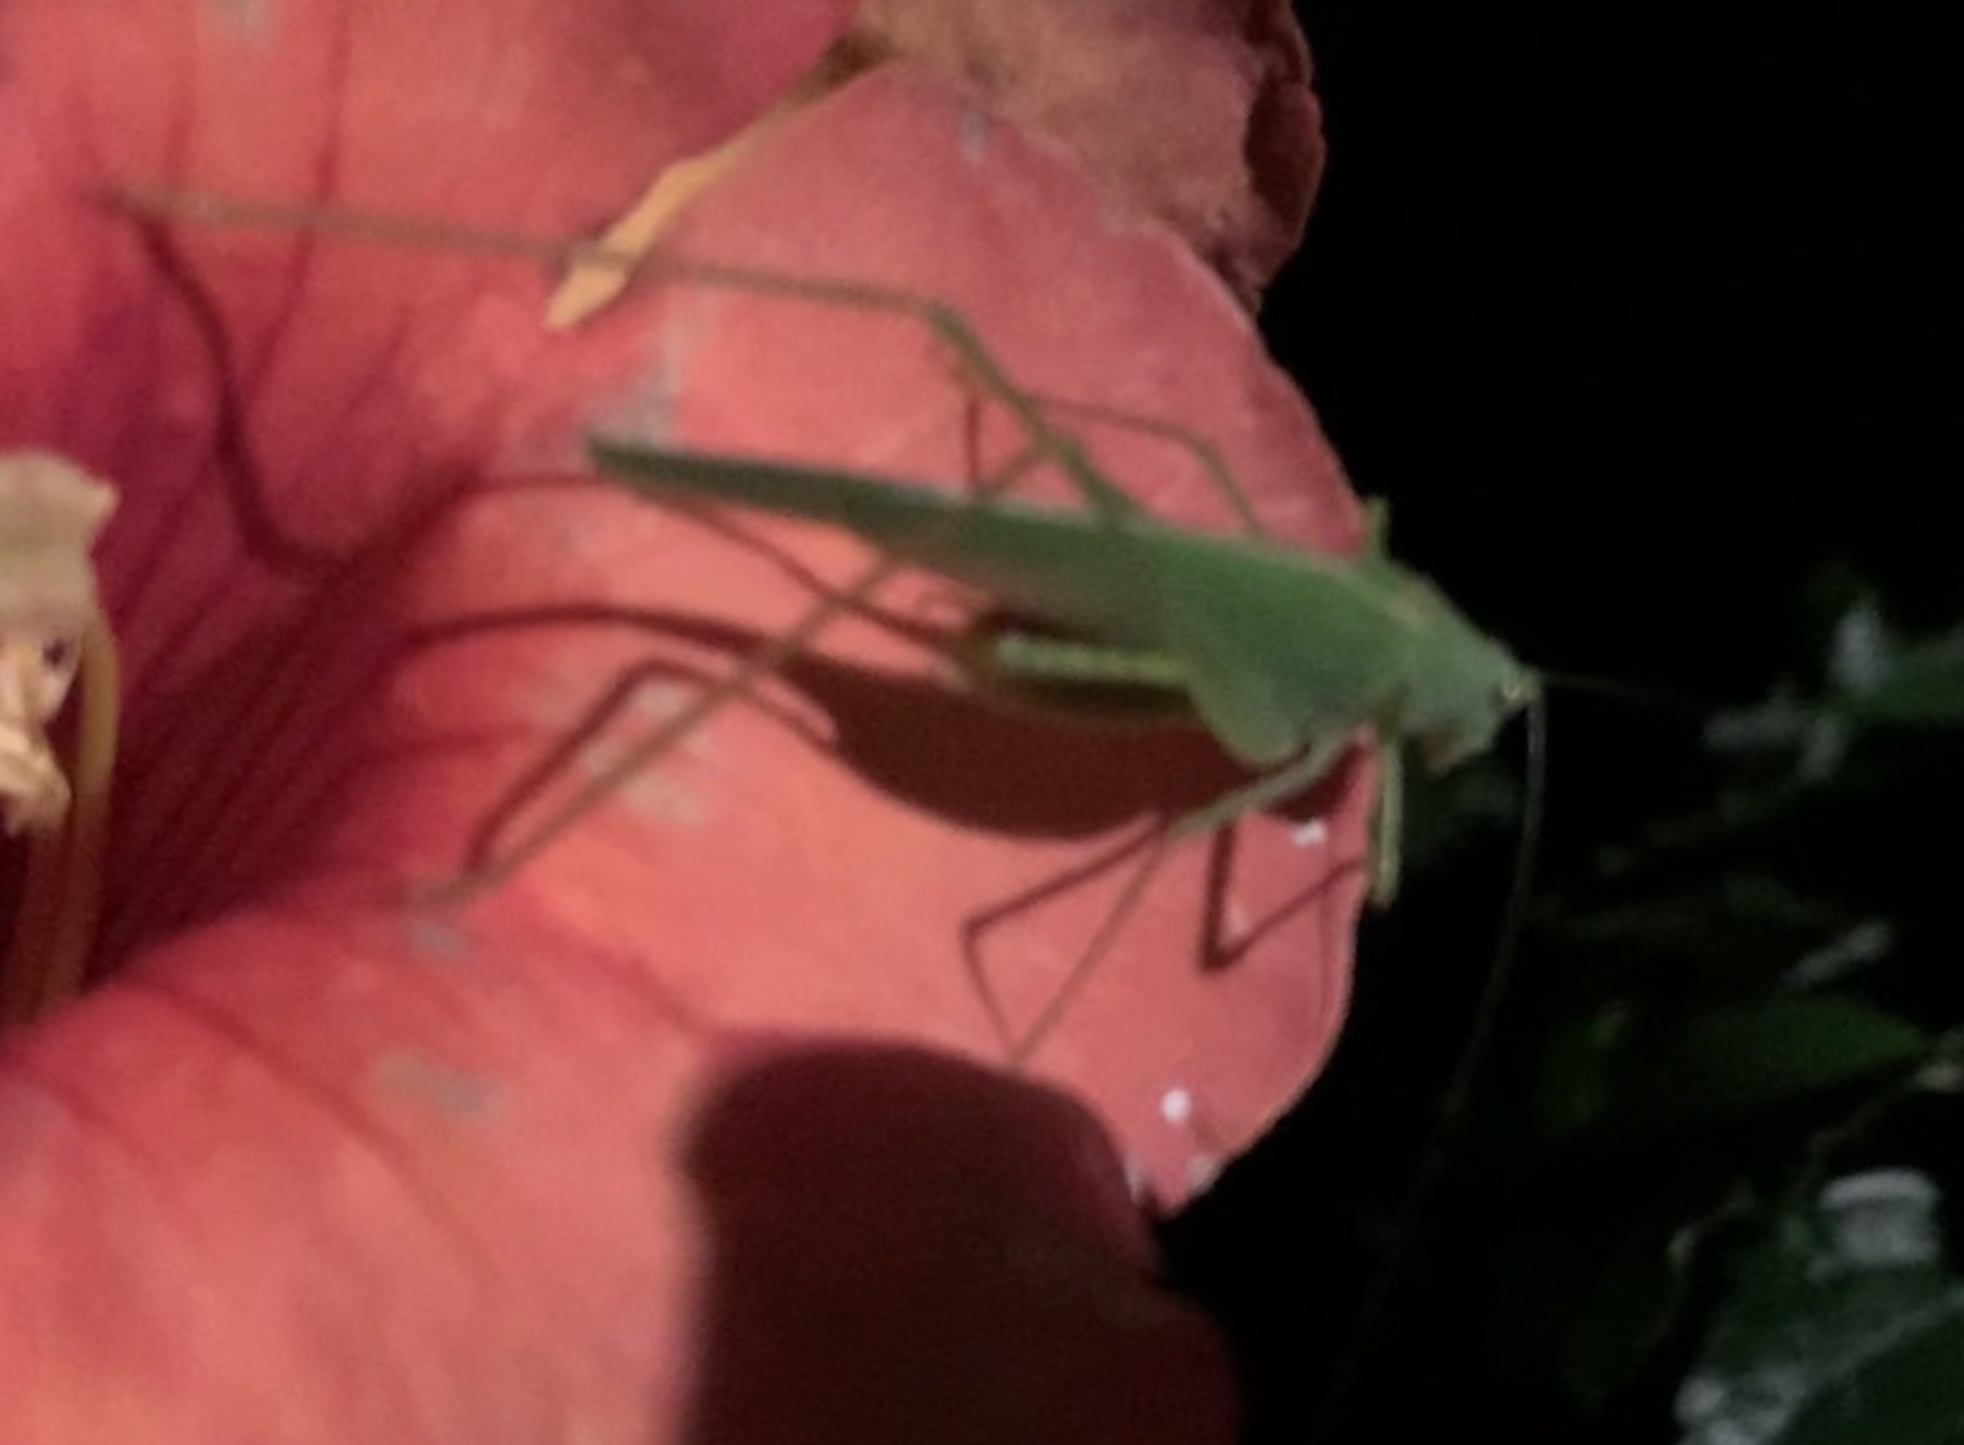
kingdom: Animalia
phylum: Arthropoda
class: Insecta
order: Orthoptera
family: Tettigoniidae
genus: Phaneroptera
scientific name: Phaneroptera nana
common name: Southern sickle bush-cricket
